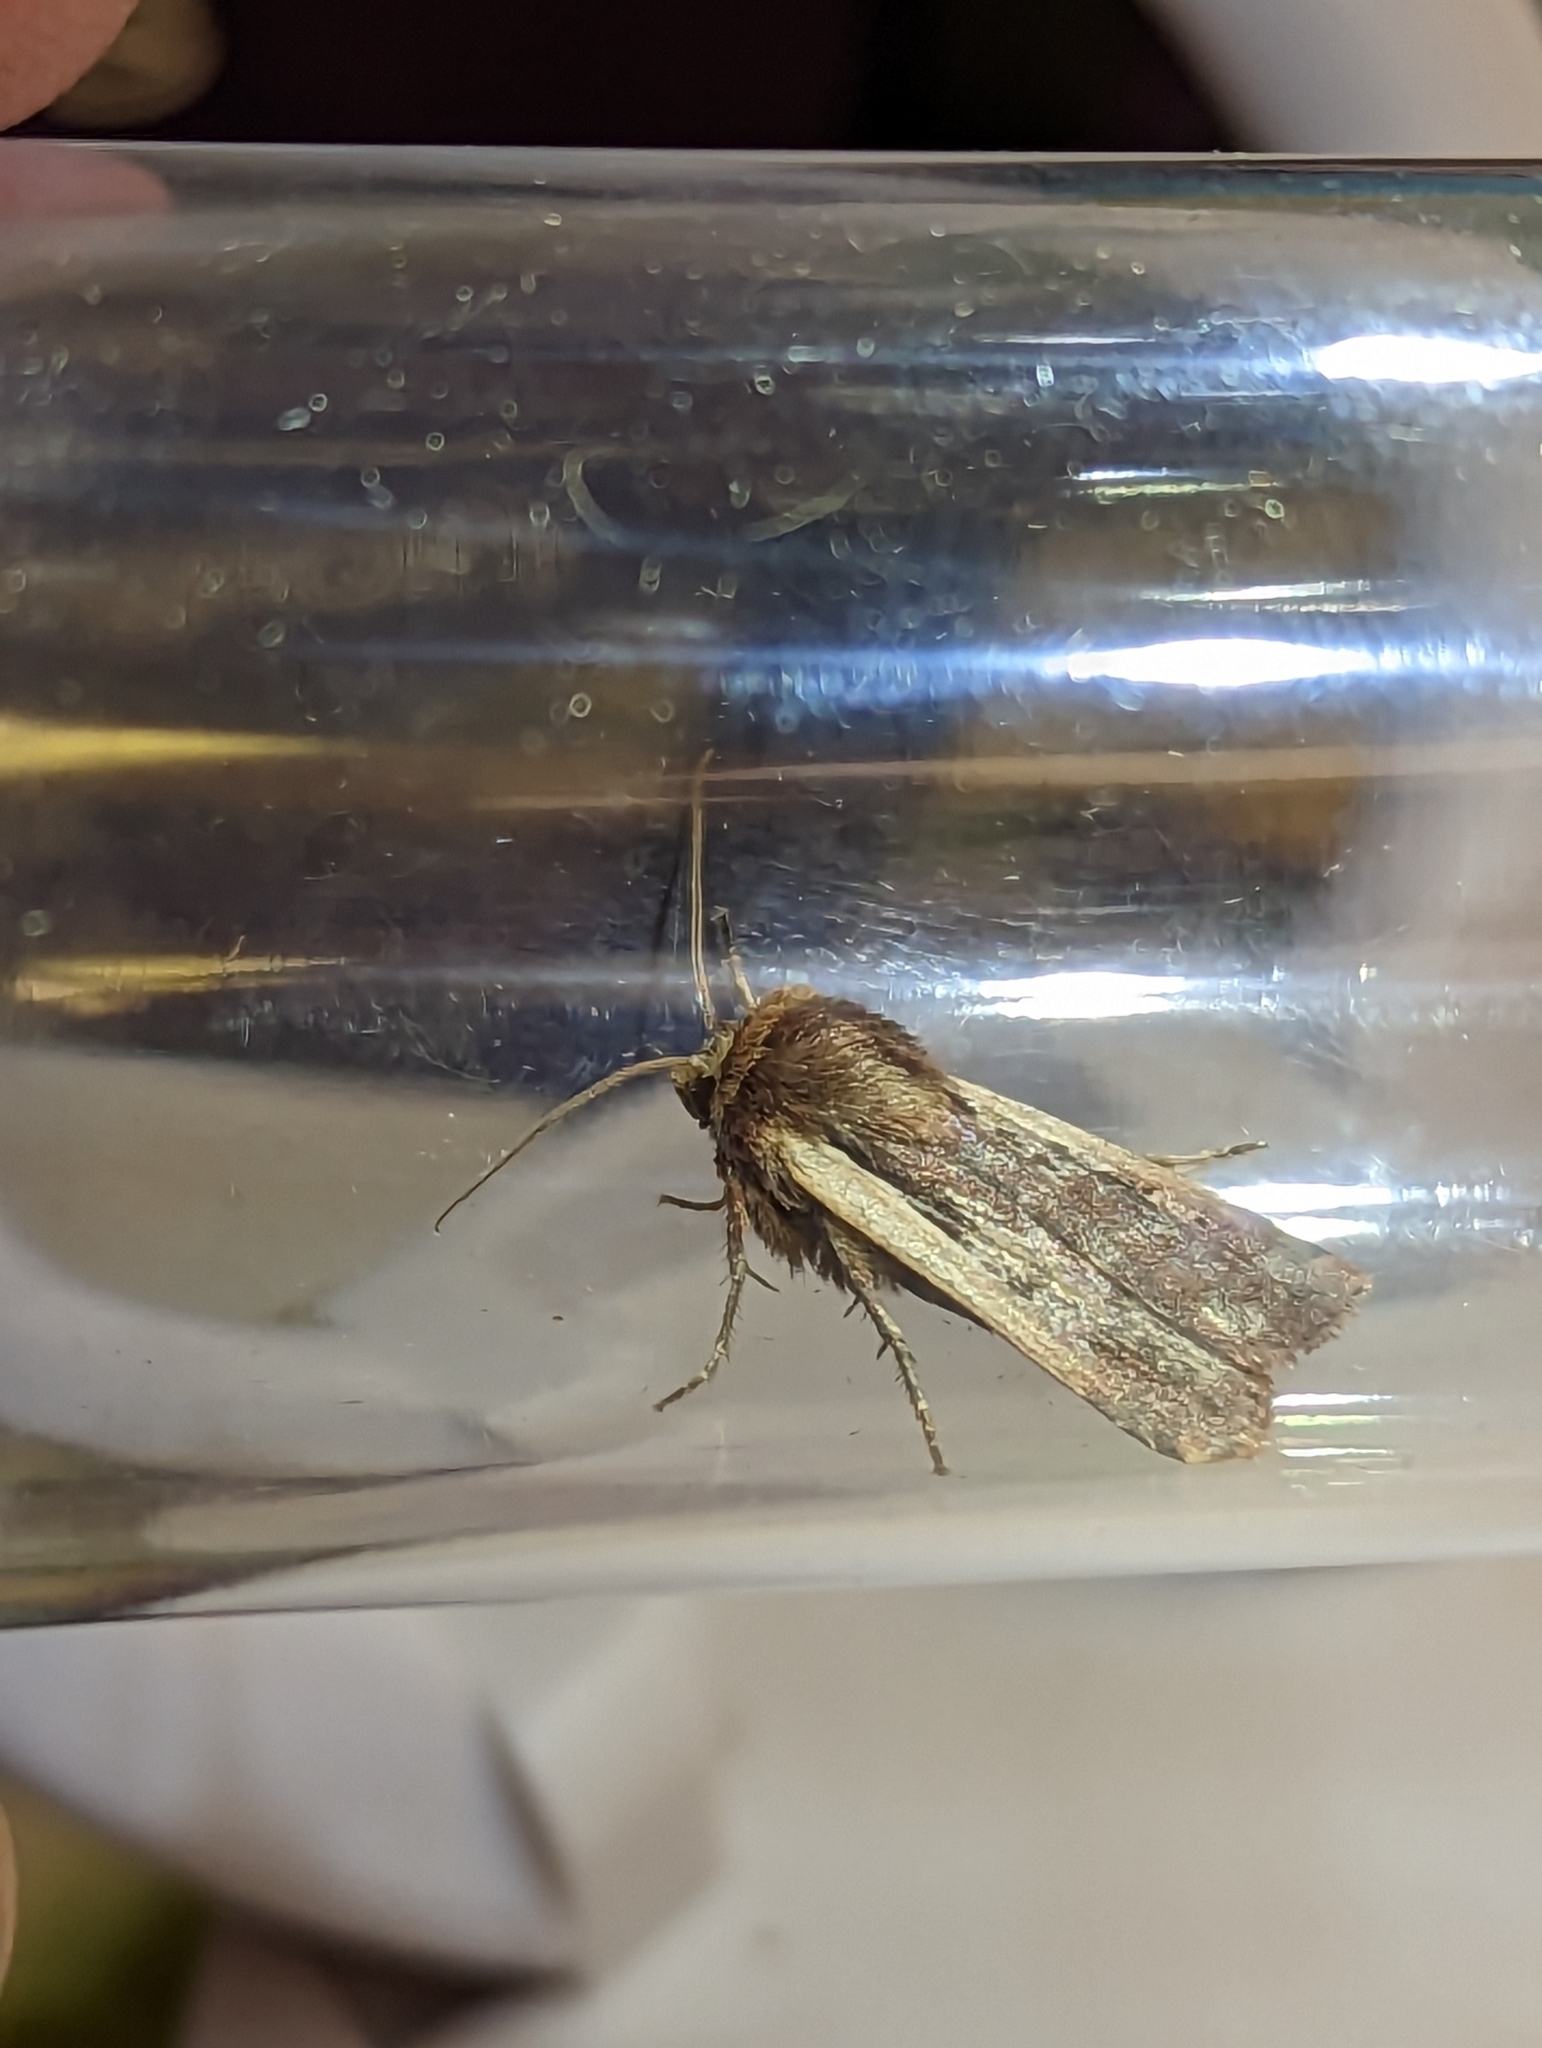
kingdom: Animalia
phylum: Arthropoda
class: Insecta
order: Lepidoptera
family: Noctuidae
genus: Ochropleura
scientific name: Ochropleura plecta
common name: Flame shoulder
